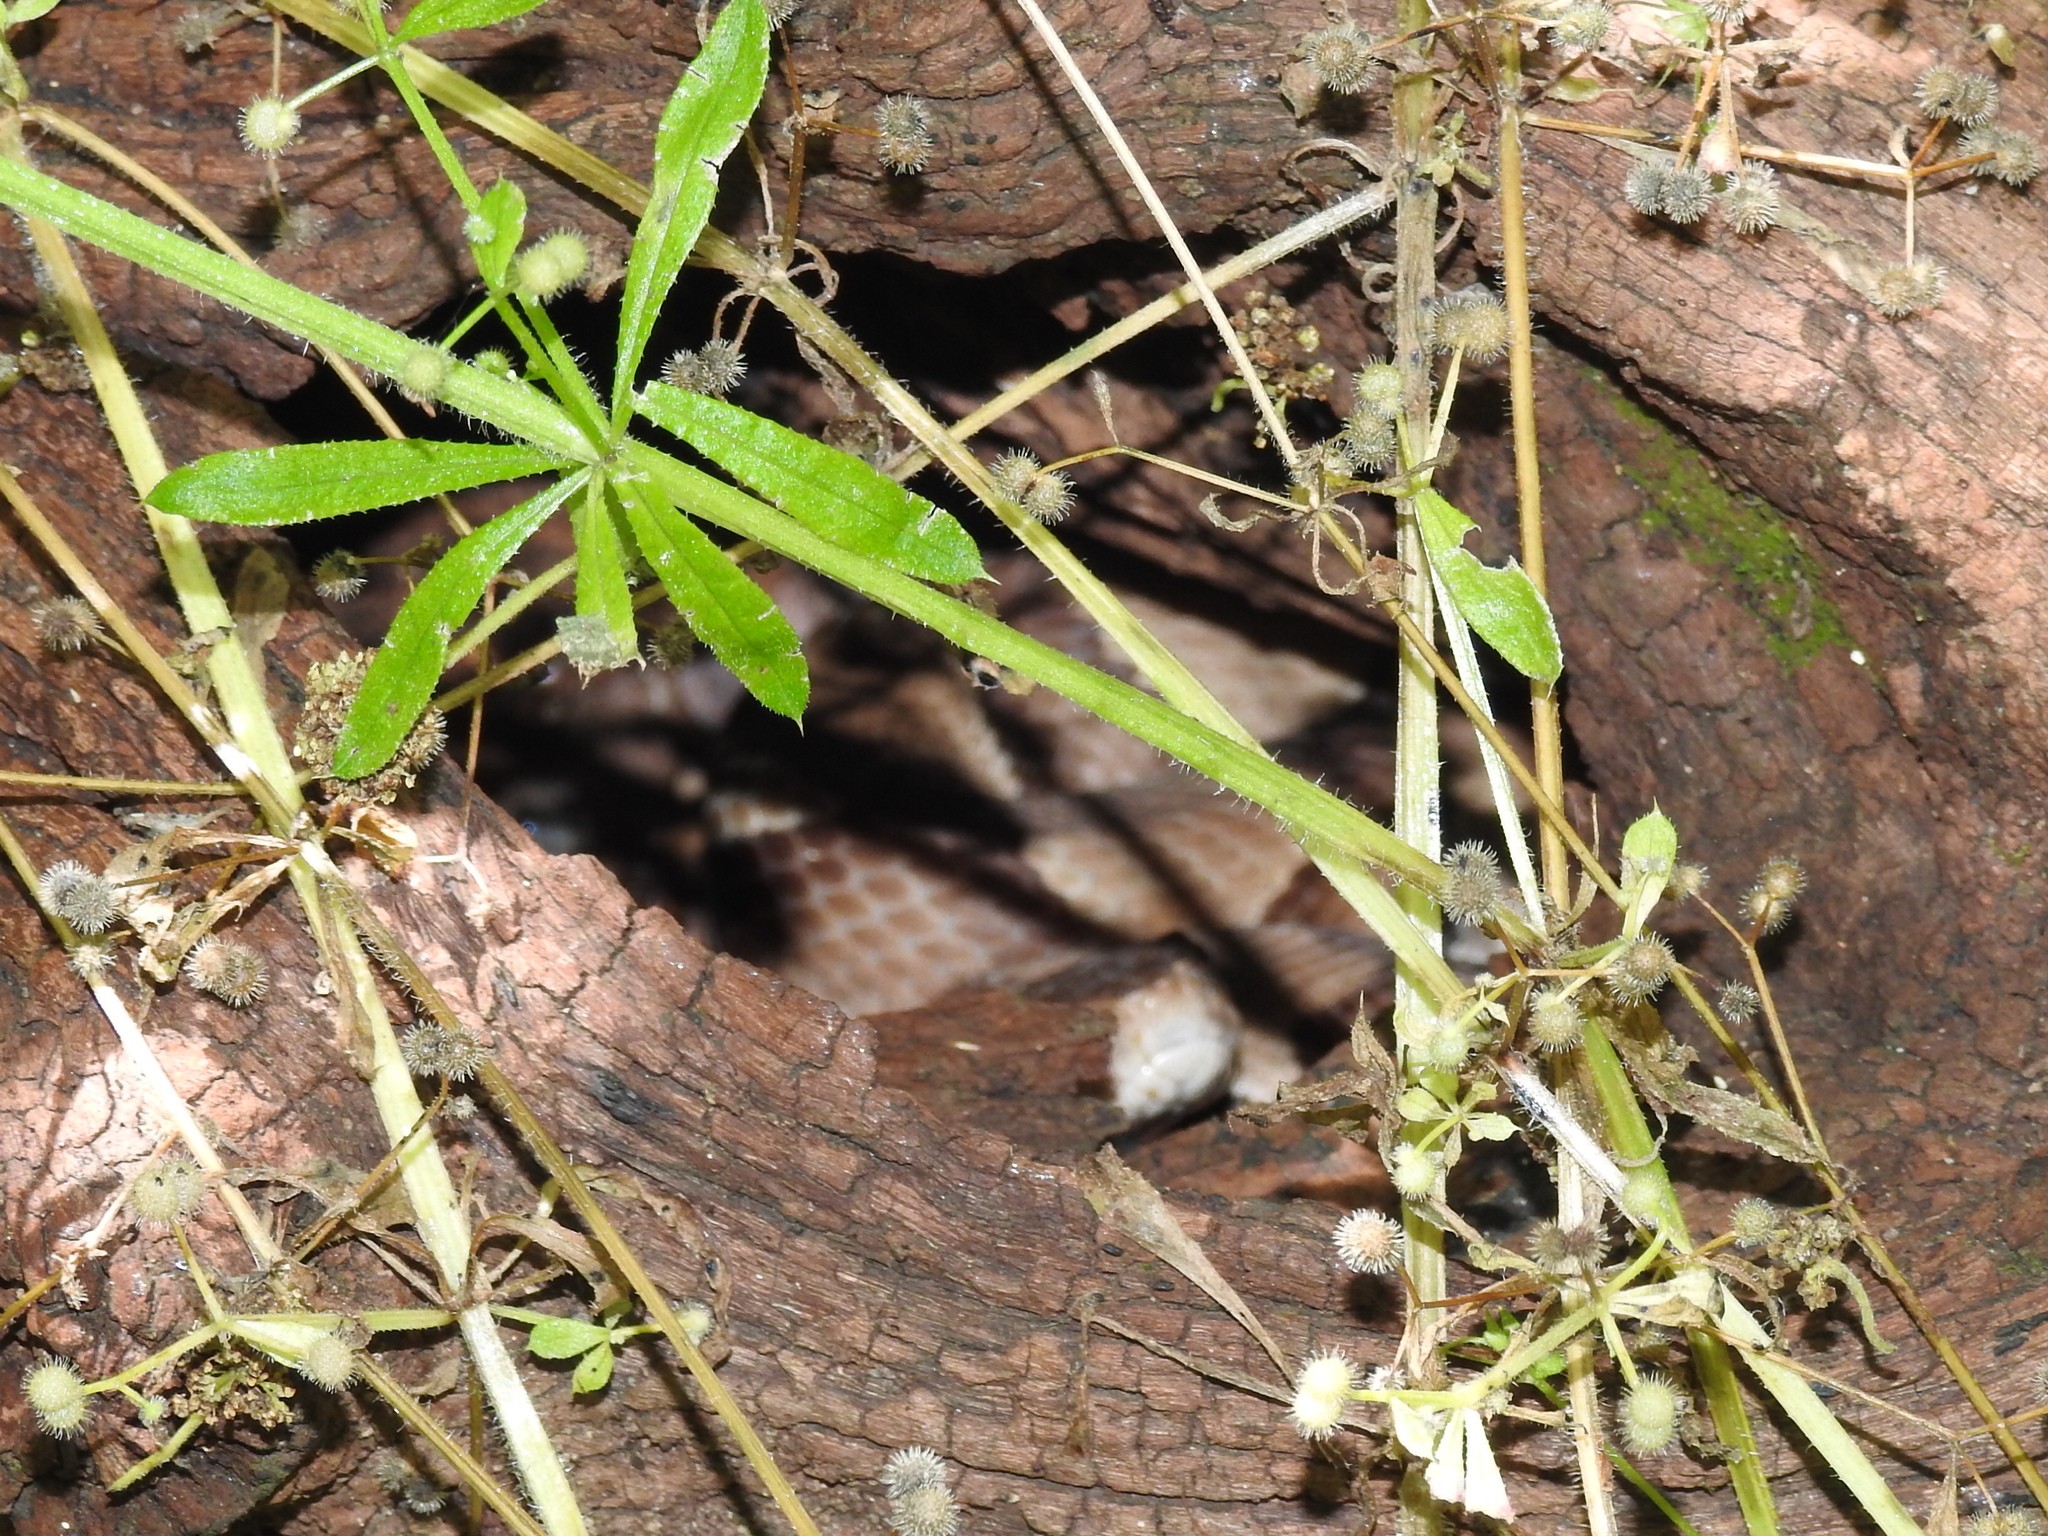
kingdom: Animalia
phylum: Chordata
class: Squamata
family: Viperidae
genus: Agkistrodon
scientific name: Agkistrodon laticinctus
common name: Broad-banded copperhead
